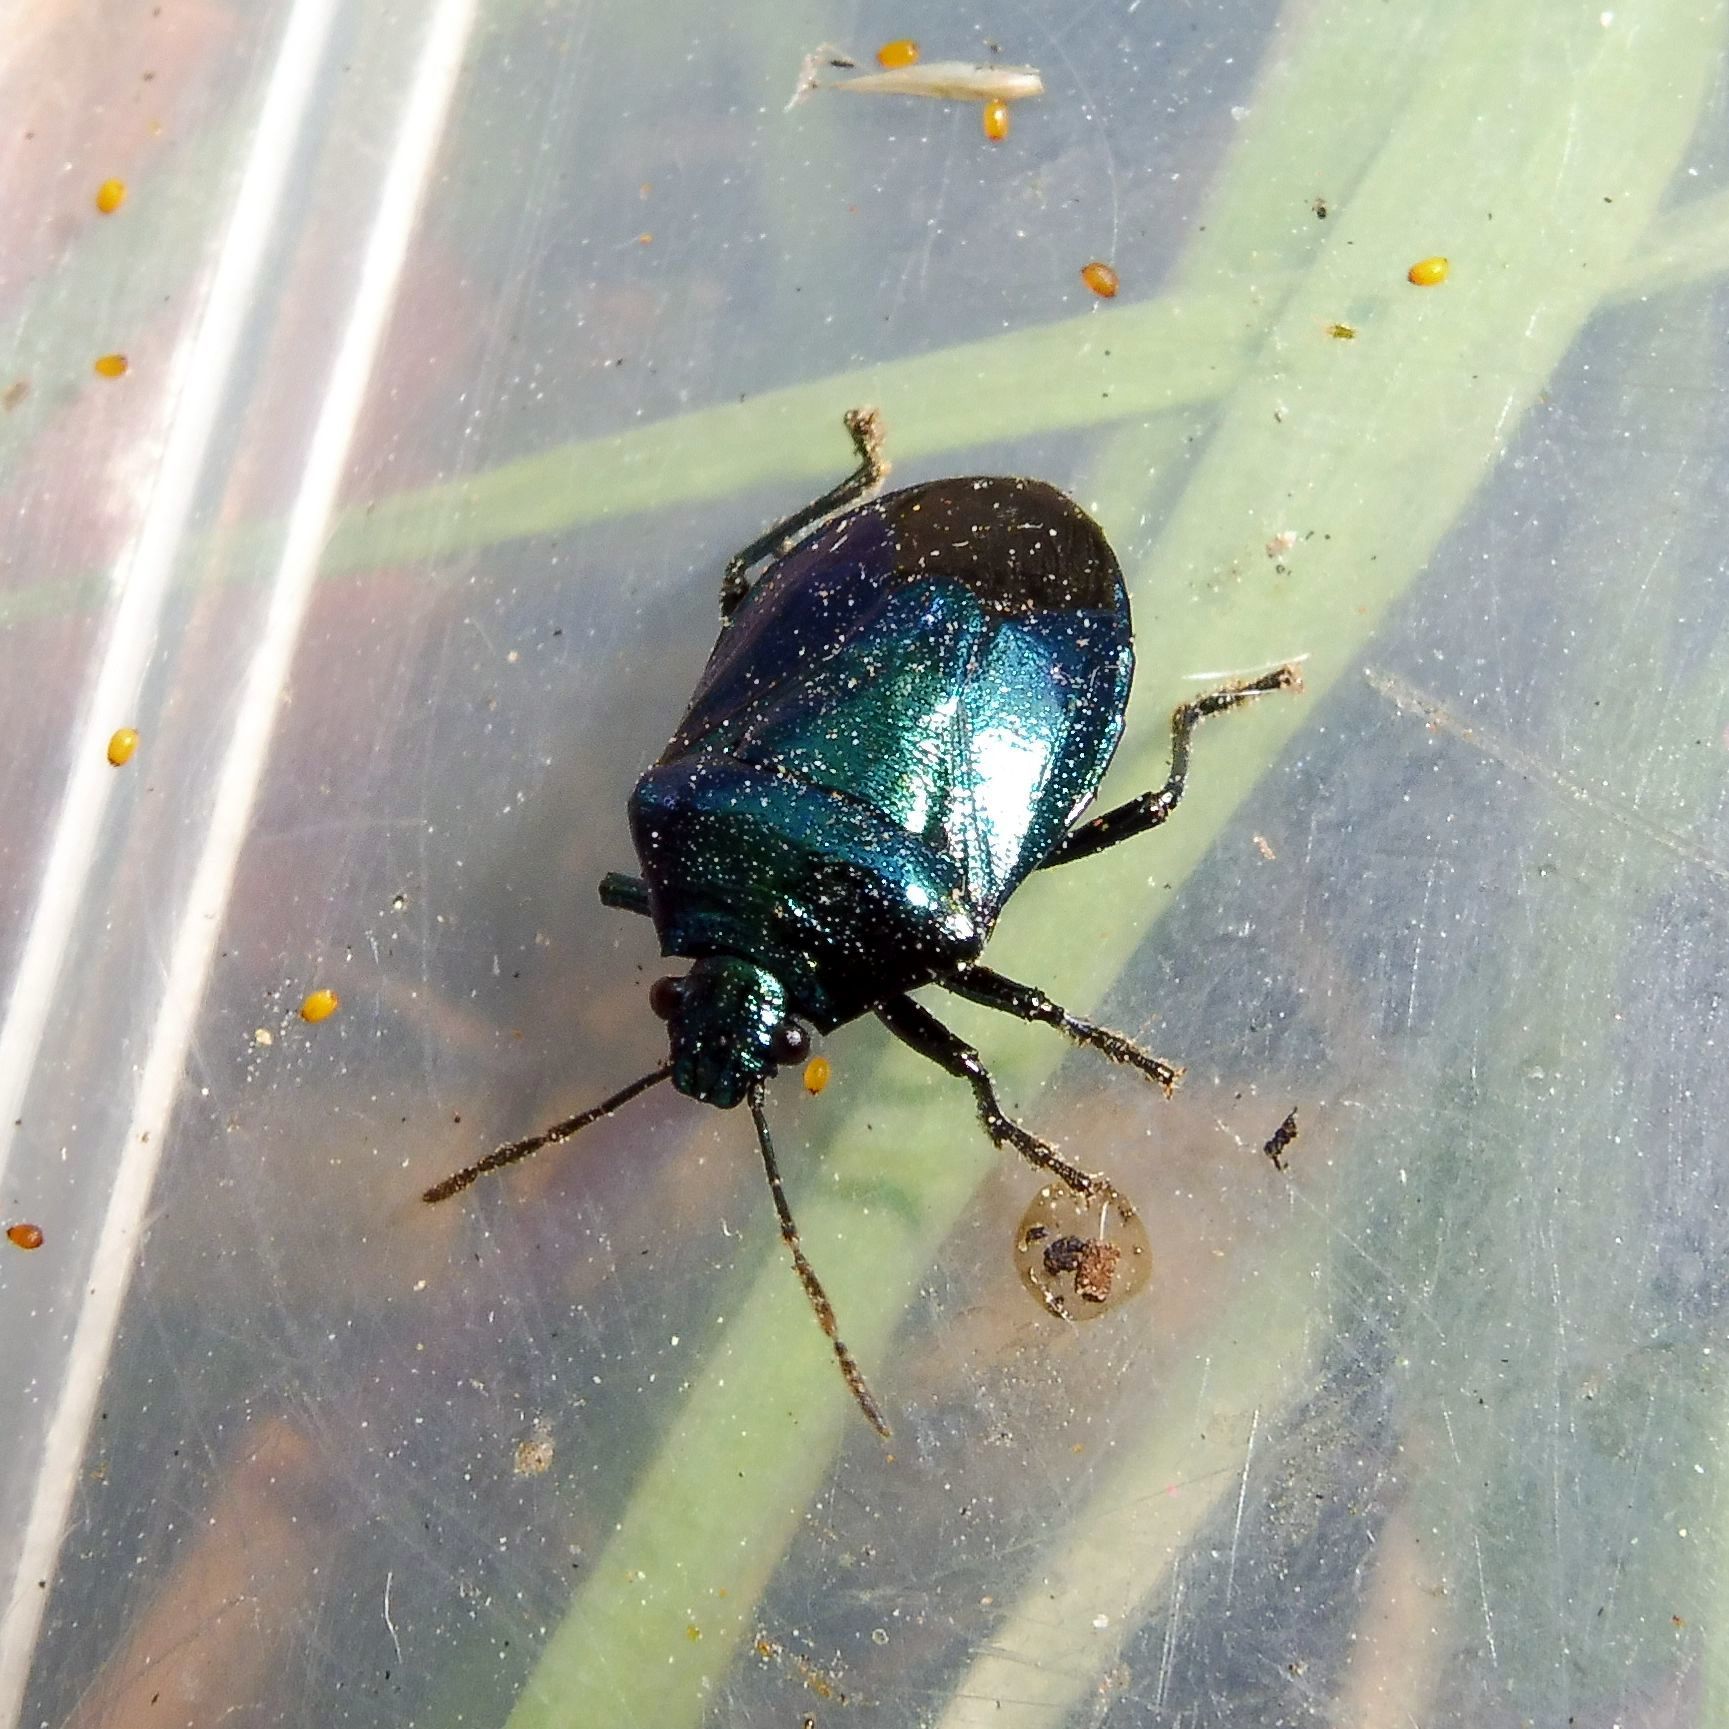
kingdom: Animalia
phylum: Arthropoda
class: Insecta
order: Hemiptera
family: Pentatomidae
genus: Zicrona
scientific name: Zicrona caerulea
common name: Blue shieldbug
